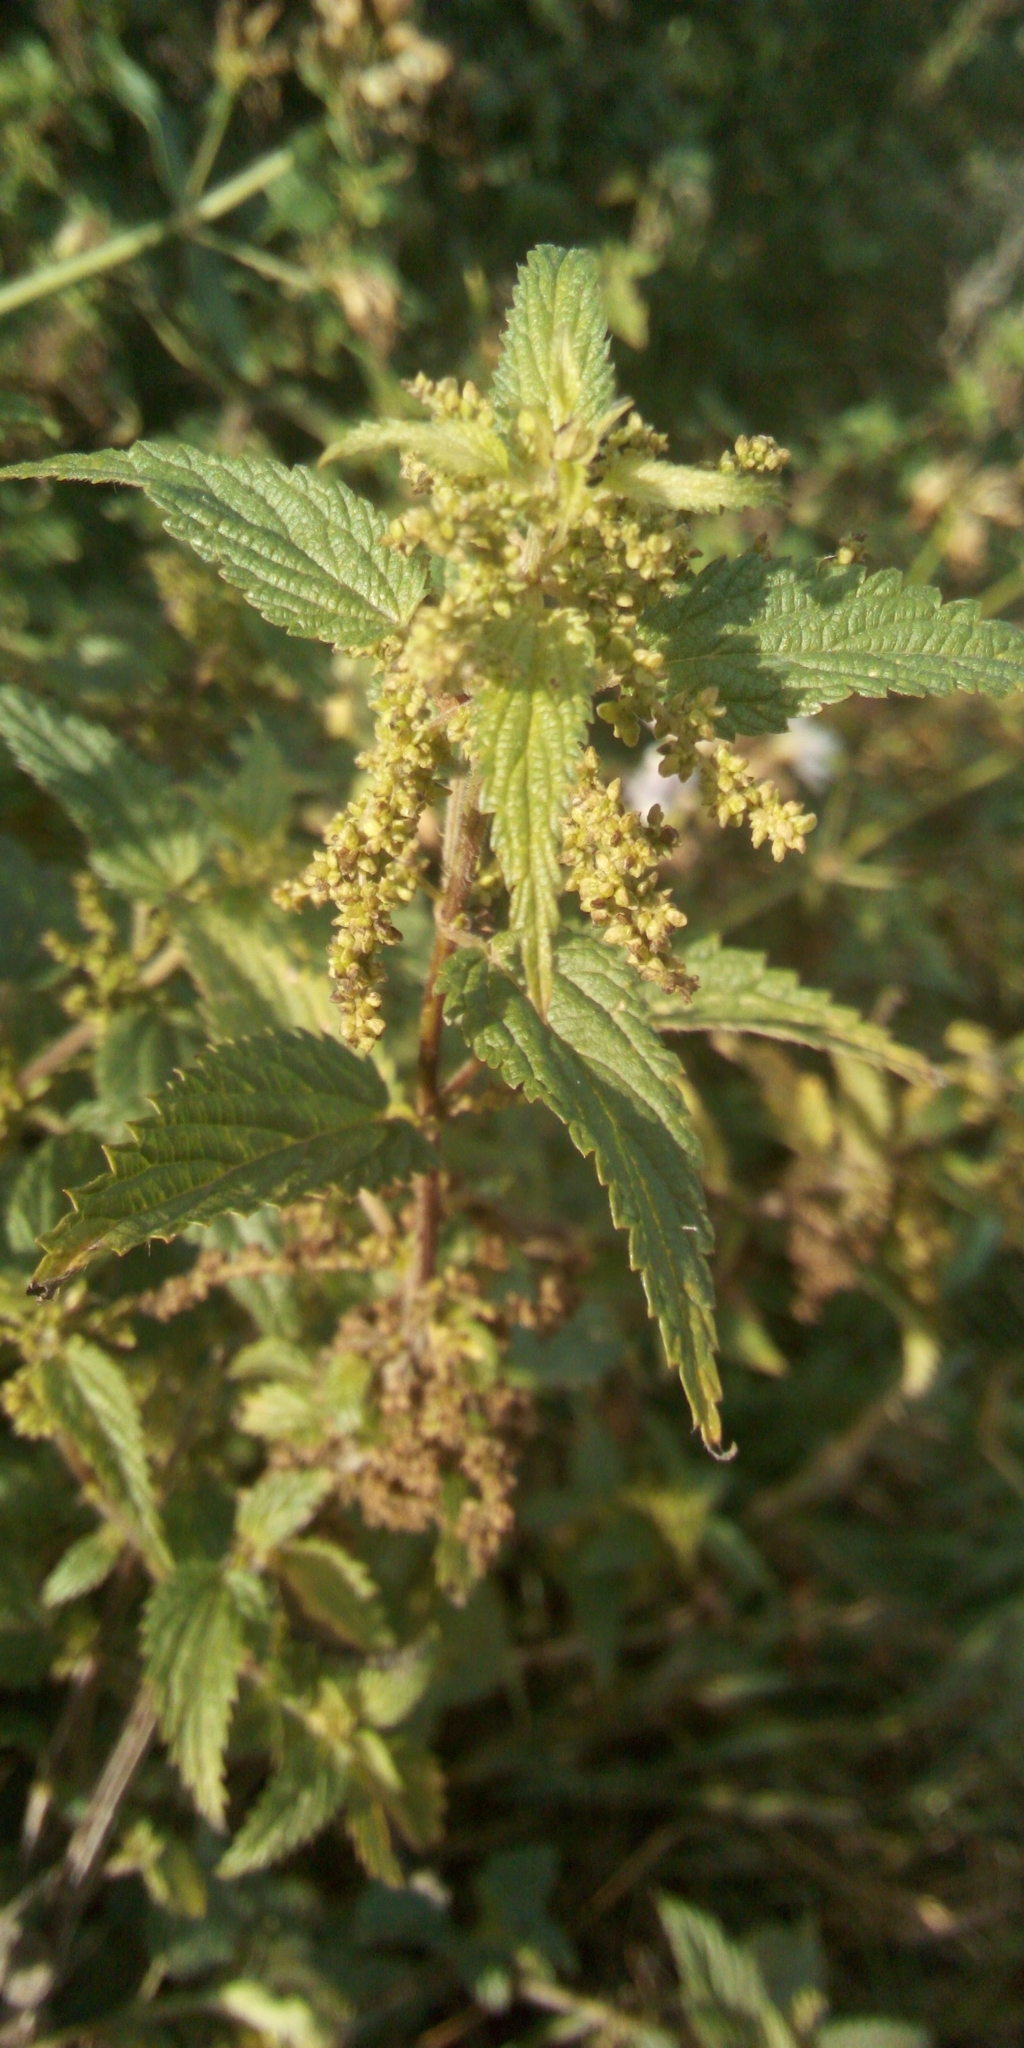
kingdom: Plantae
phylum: Tracheophyta
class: Magnoliopsida
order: Rosales
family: Urticaceae
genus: Urtica
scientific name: Urtica dioica
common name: Common nettle
